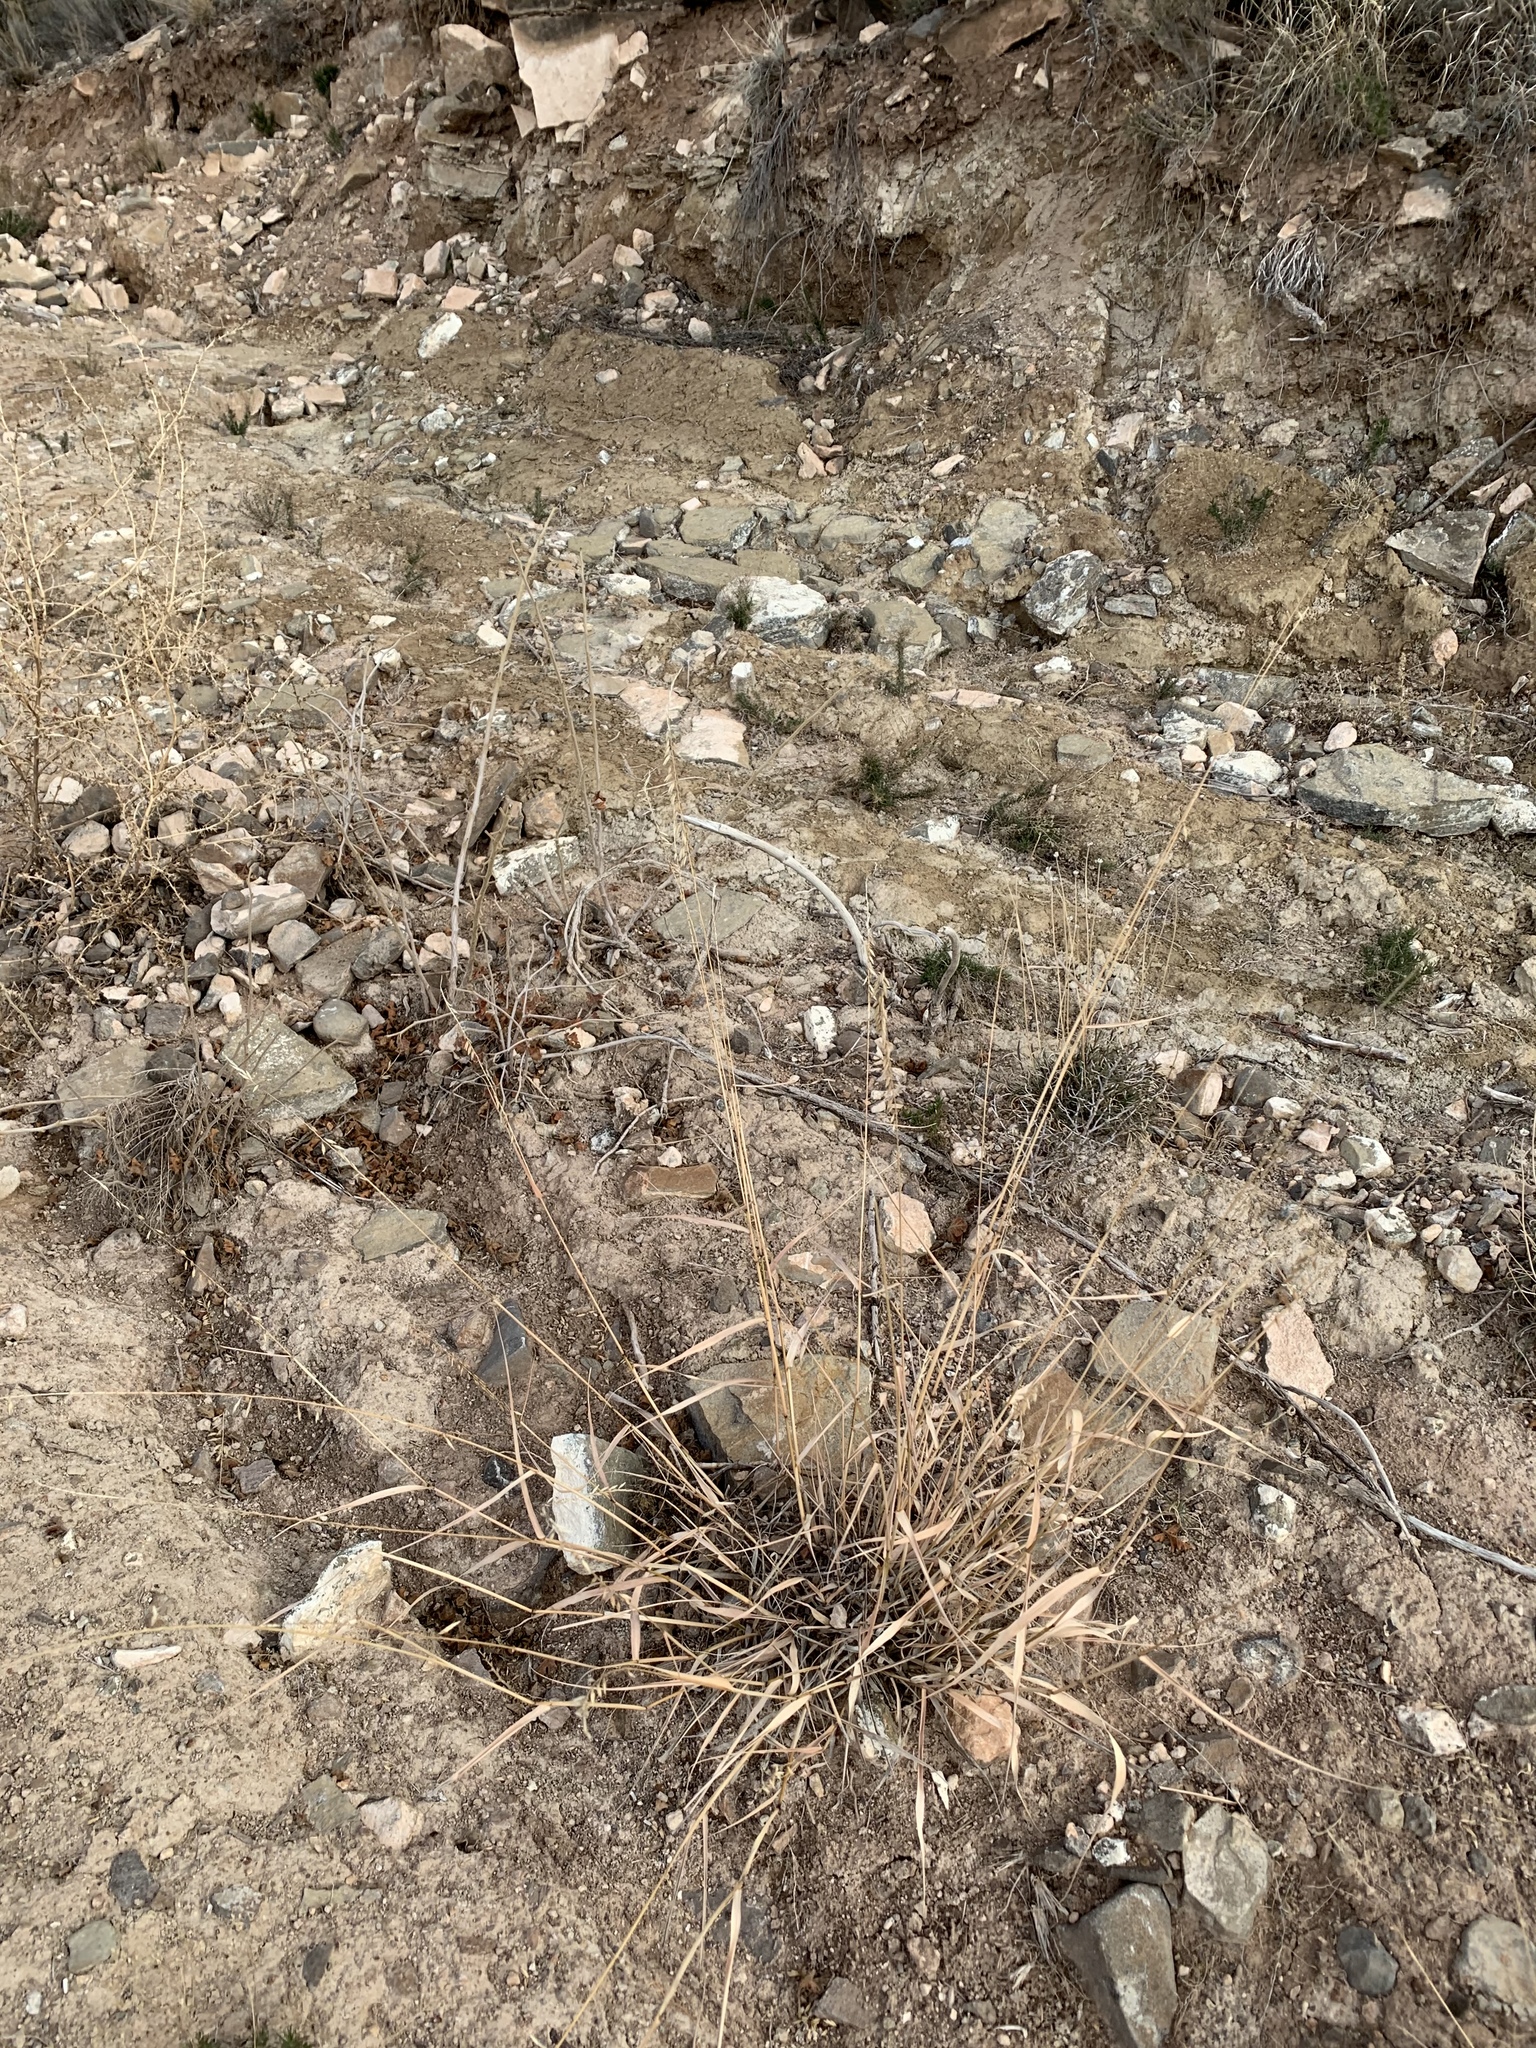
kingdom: Plantae
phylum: Tracheophyta
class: Liliopsida
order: Poales
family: Poaceae
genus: Bouteloua
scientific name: Bouteloua curtipendula
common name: Side-oats grama
